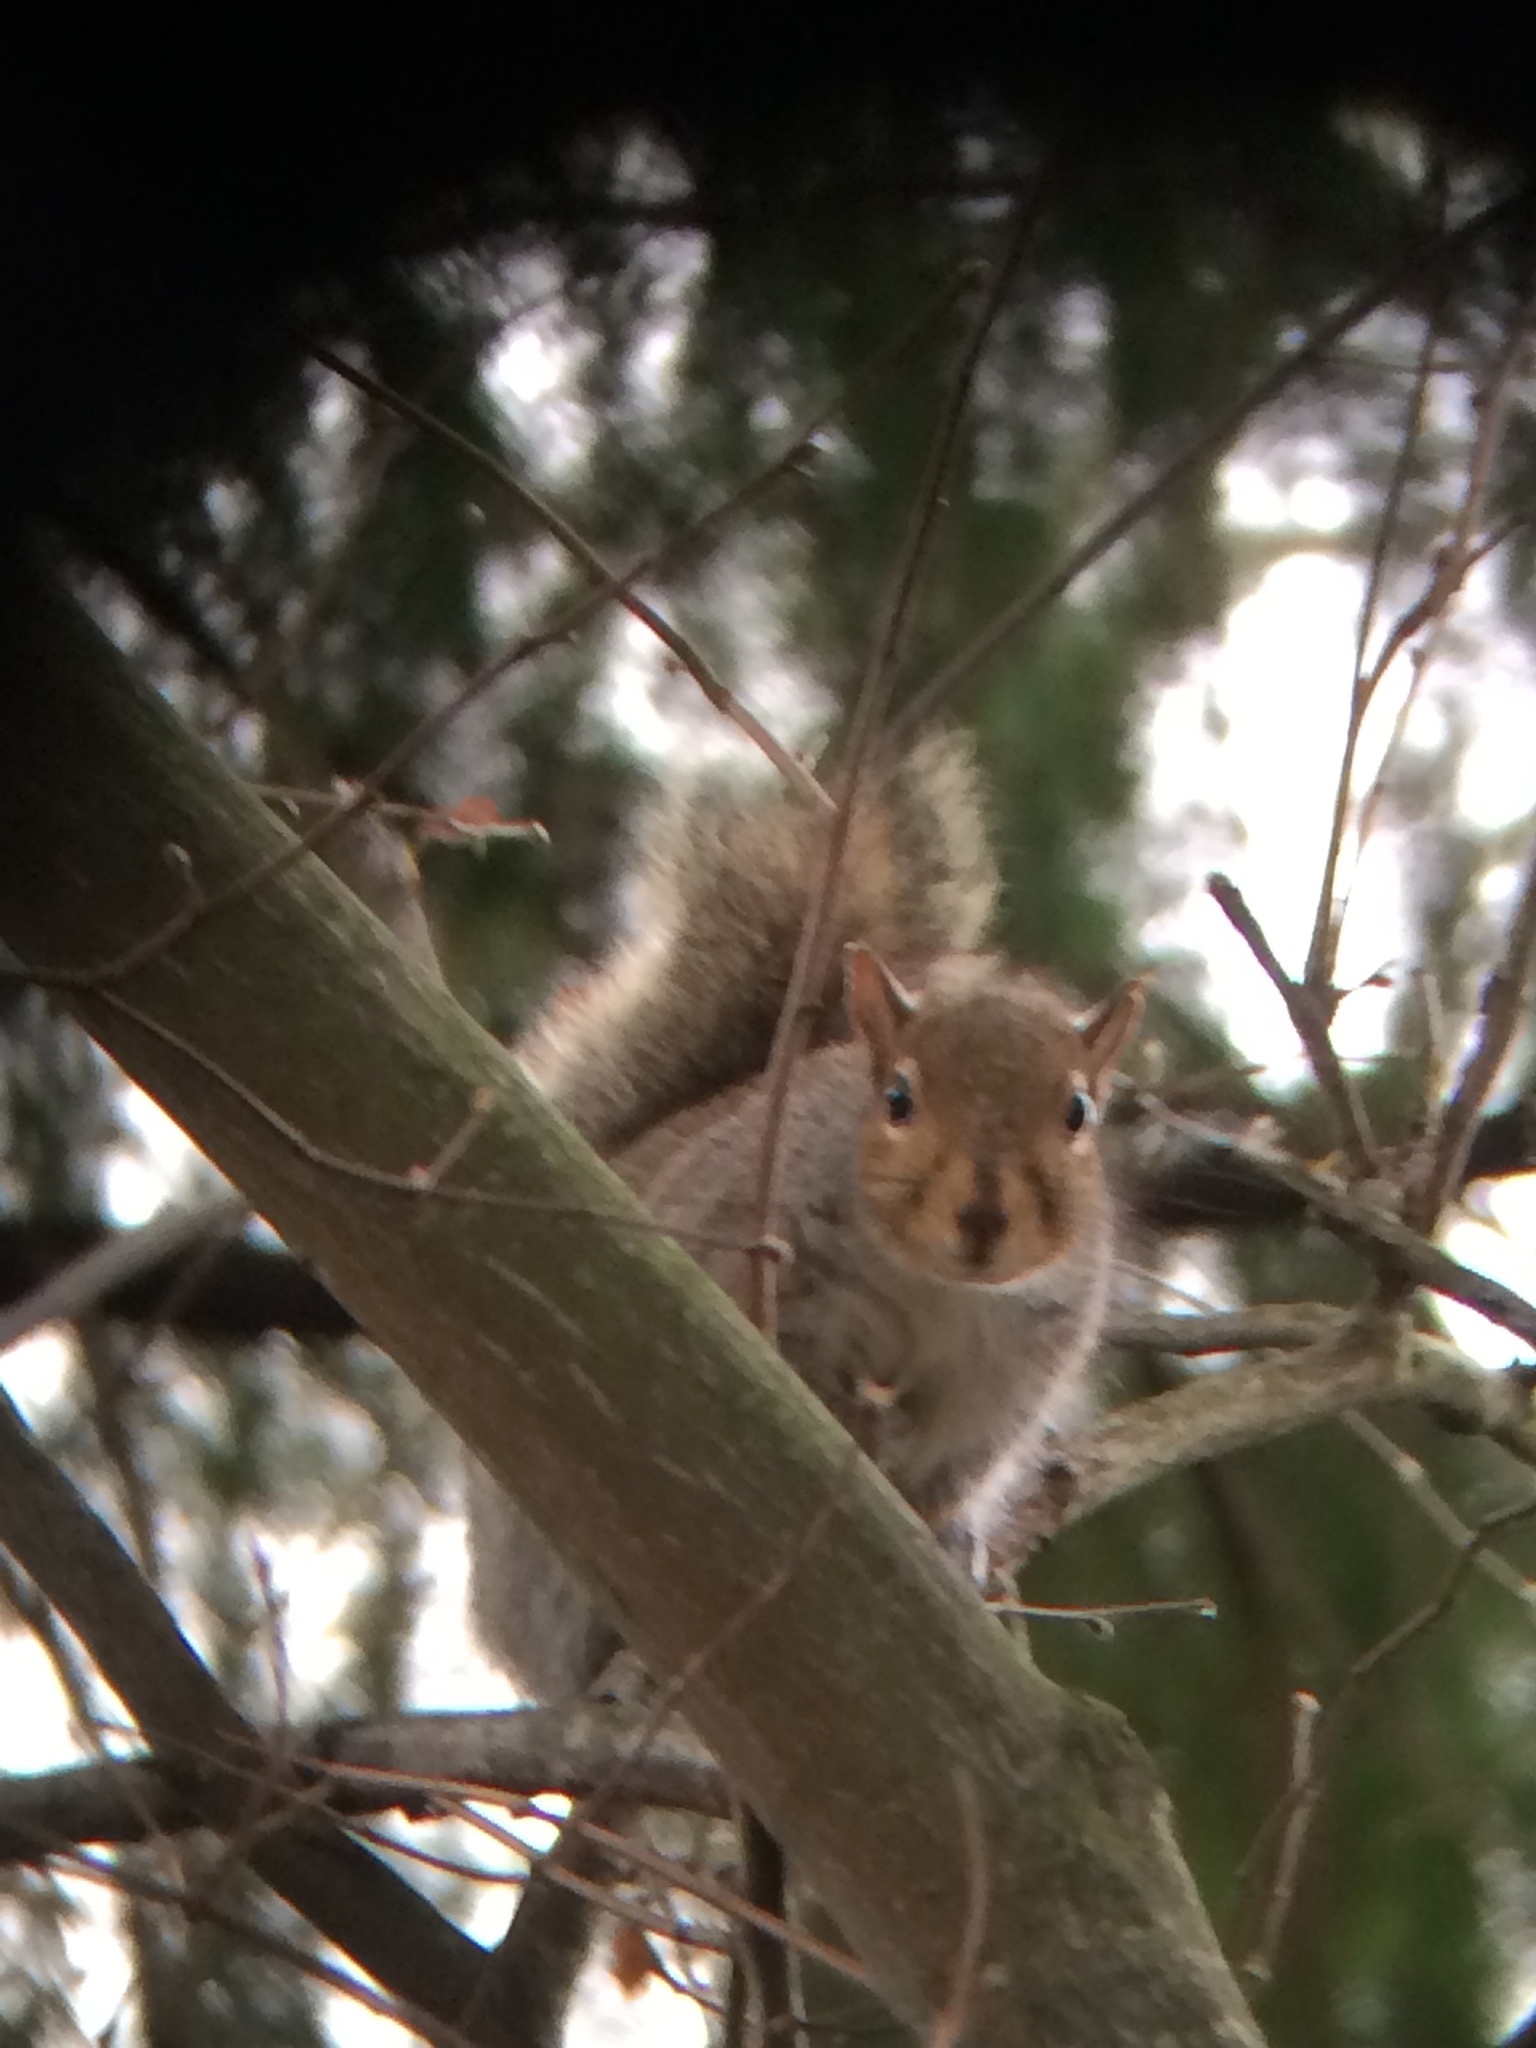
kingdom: Animalia
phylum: Chordata
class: Mammalia
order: Rodentia
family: Sciuridae
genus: Sciurus
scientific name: Sciurus carolinensis
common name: Eastern gray squirrel
